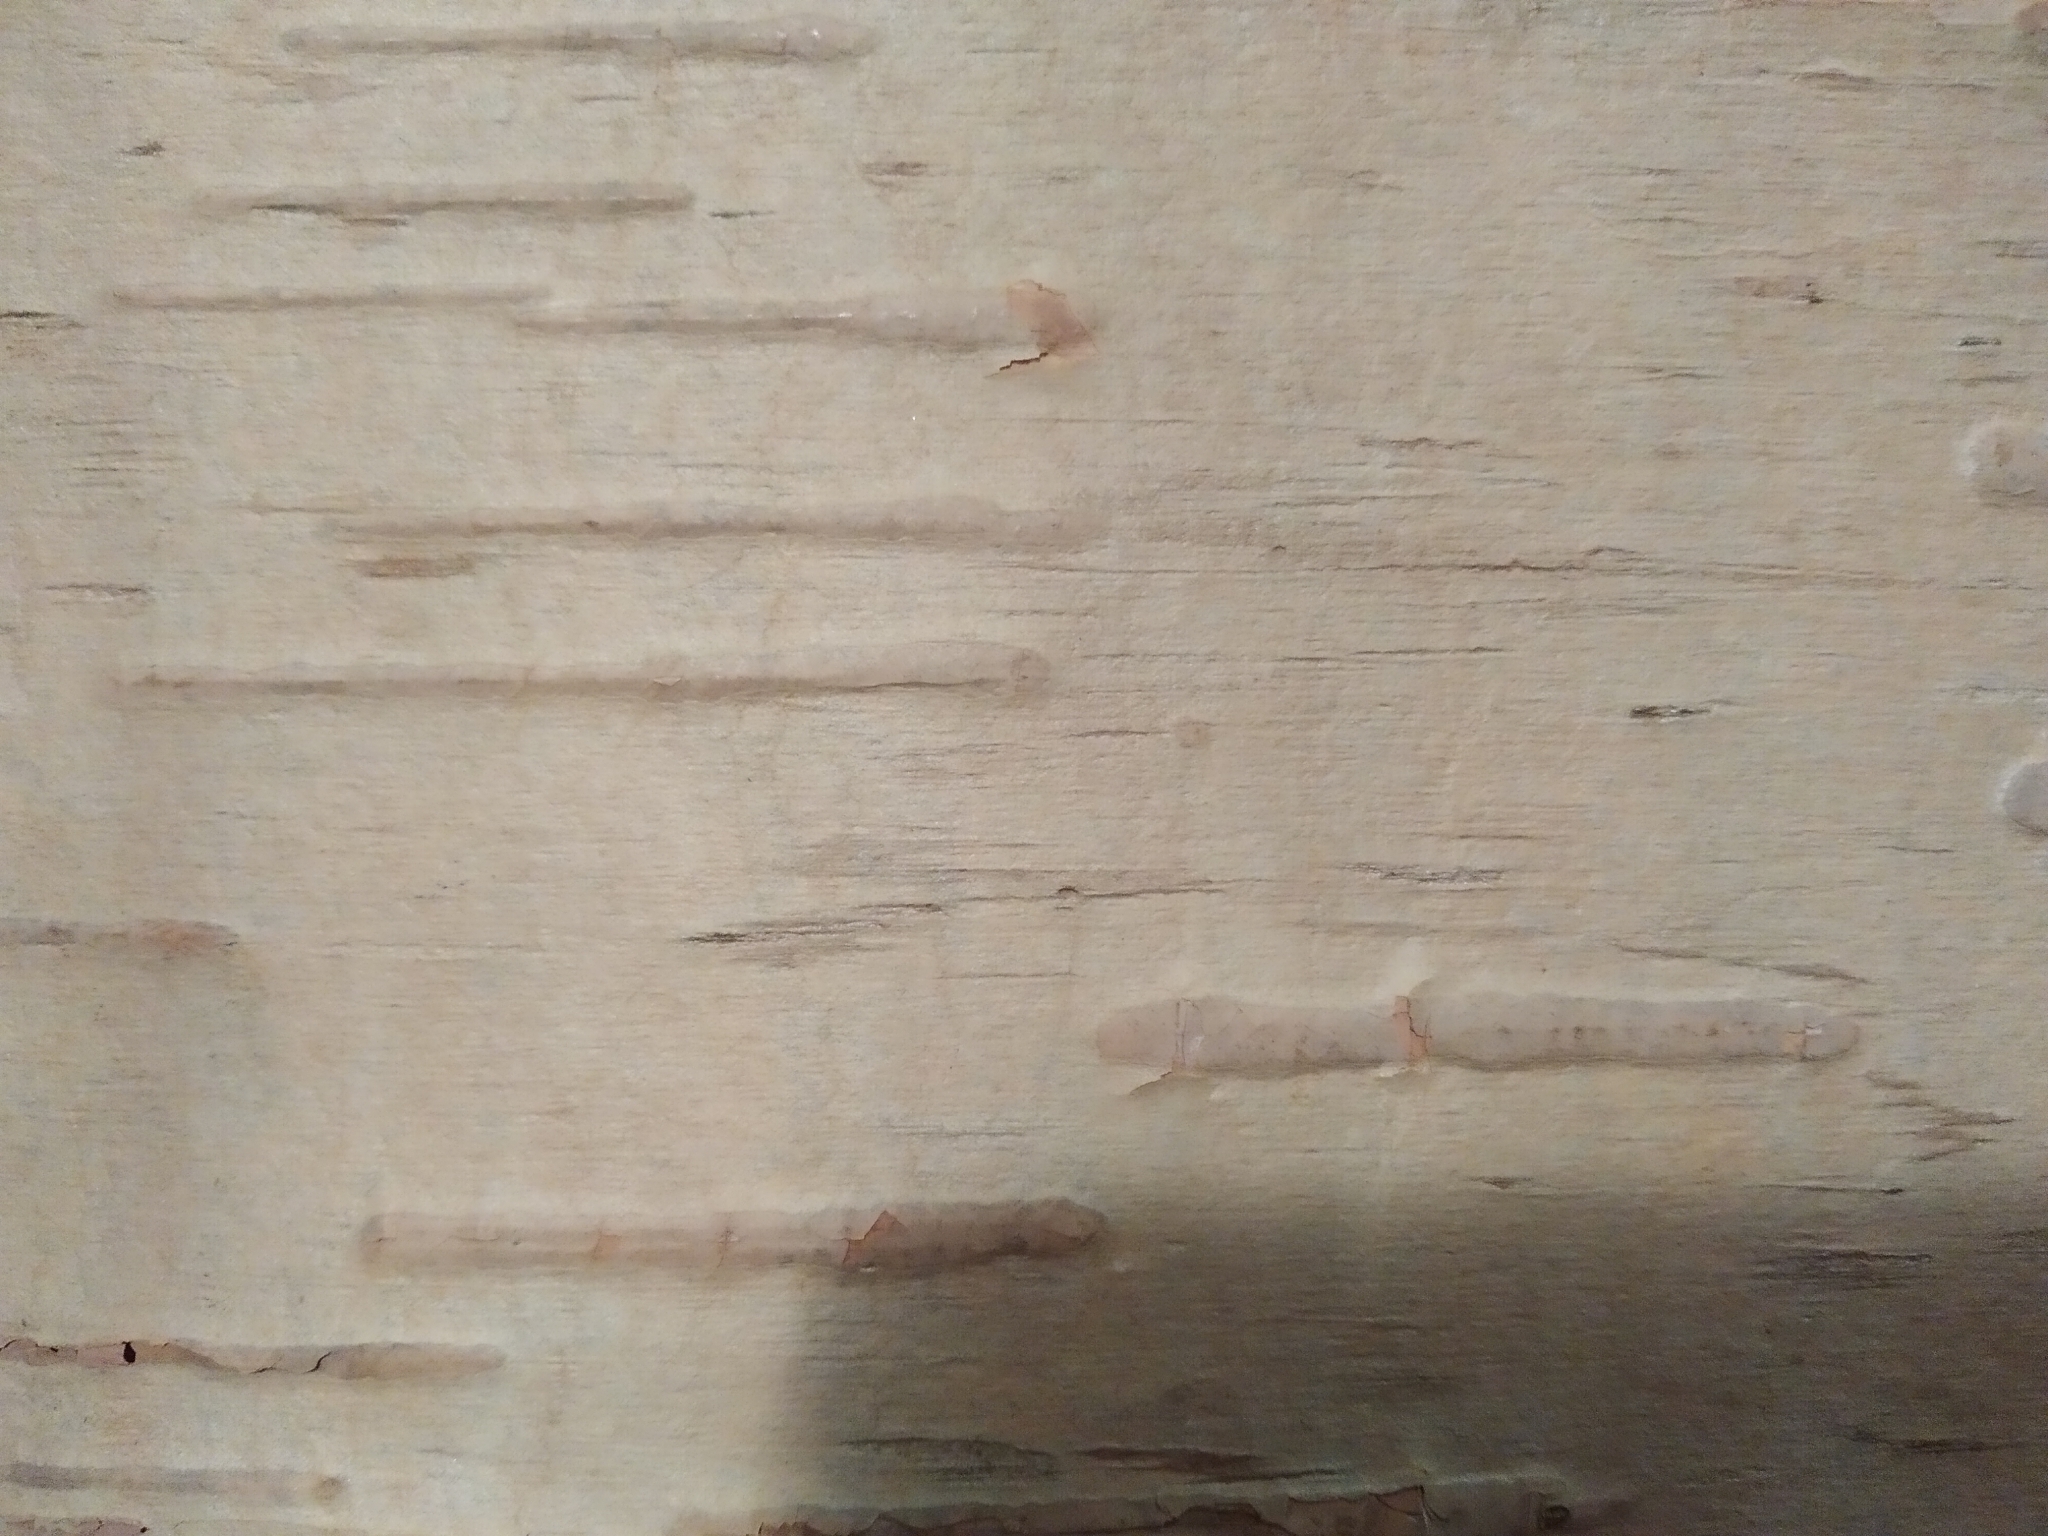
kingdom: Plantae
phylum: Tracheophyta
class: Magnoliopsida
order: Fagales
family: Betulaceae
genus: Betula
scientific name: Betula
